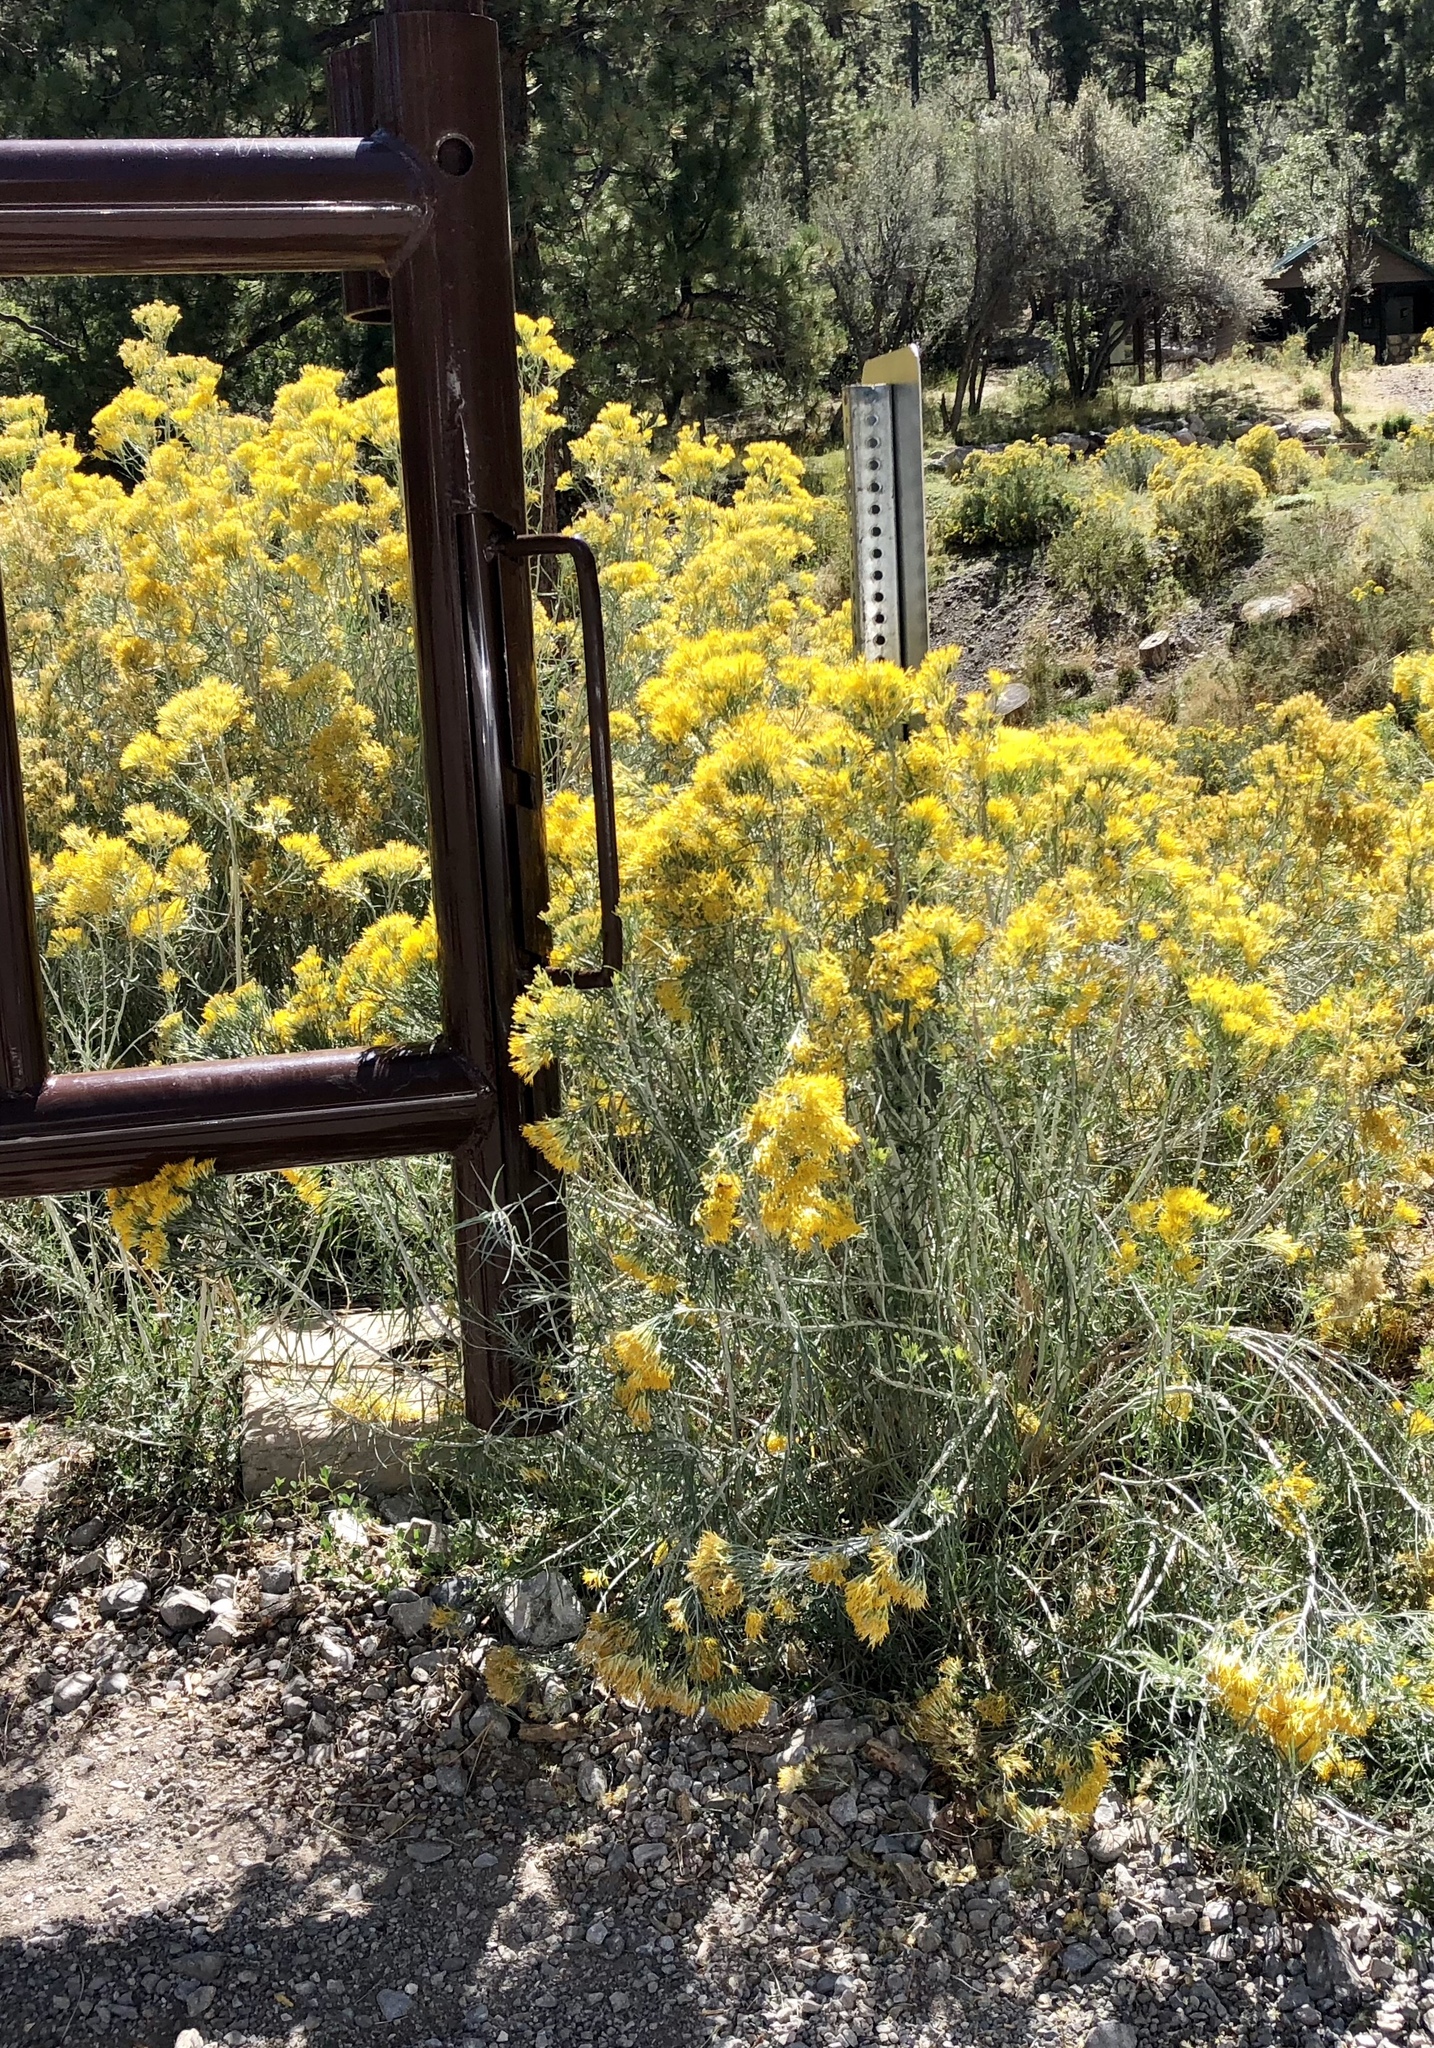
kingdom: Plantae
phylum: Tracheophyta
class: Magnoliopsida
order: Asterales
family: Asteraceae
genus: Ericameria
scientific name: Ericameria nauseosa
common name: Rubber rabbitbrush
